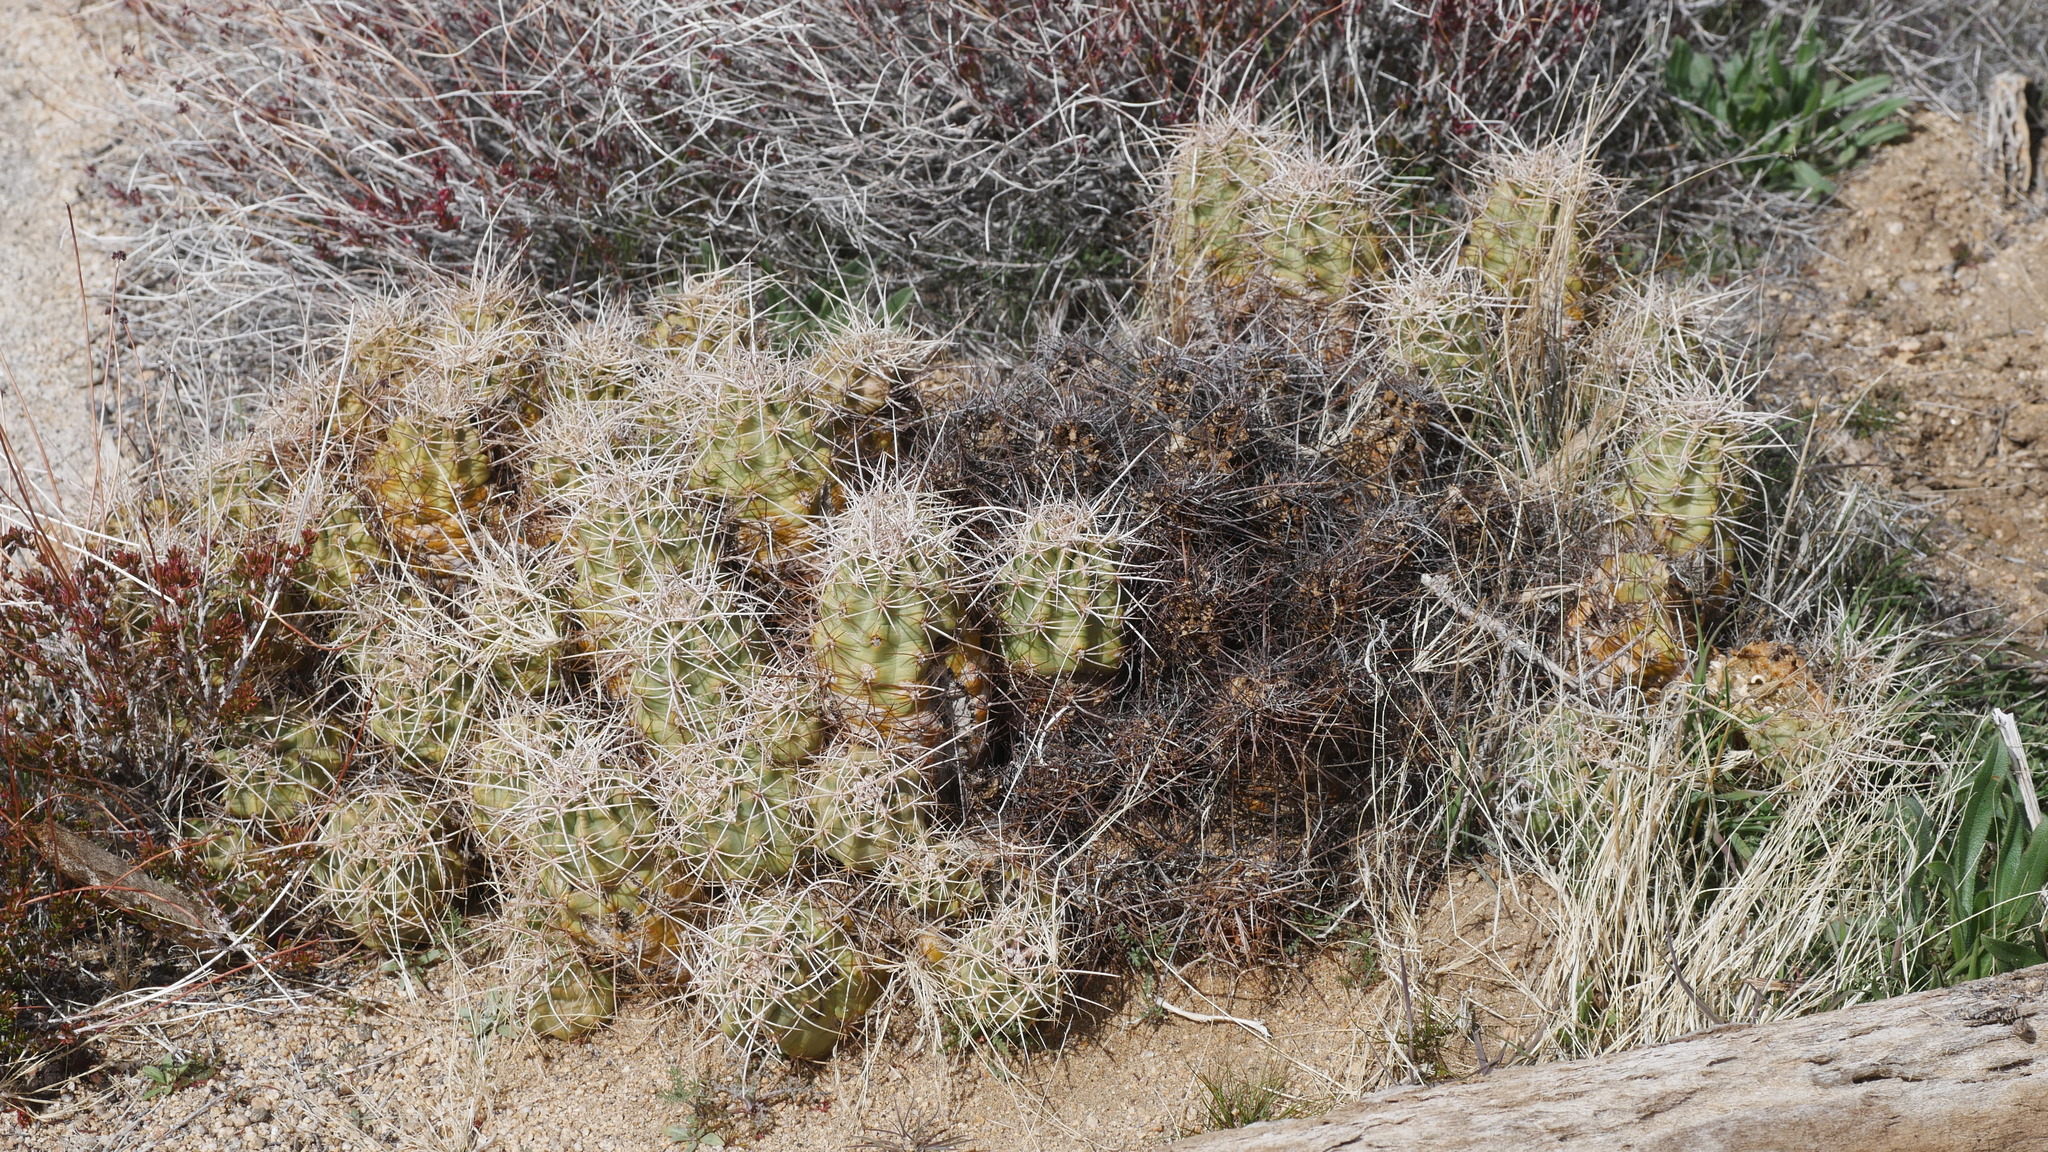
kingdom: Plantae
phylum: Tracheophyta
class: Magnoliopsida
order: Caryophyllales
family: Cactaceae
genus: Echinocereus
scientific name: Echinocereus triglochidiatus
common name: Claretcup hedgehog
